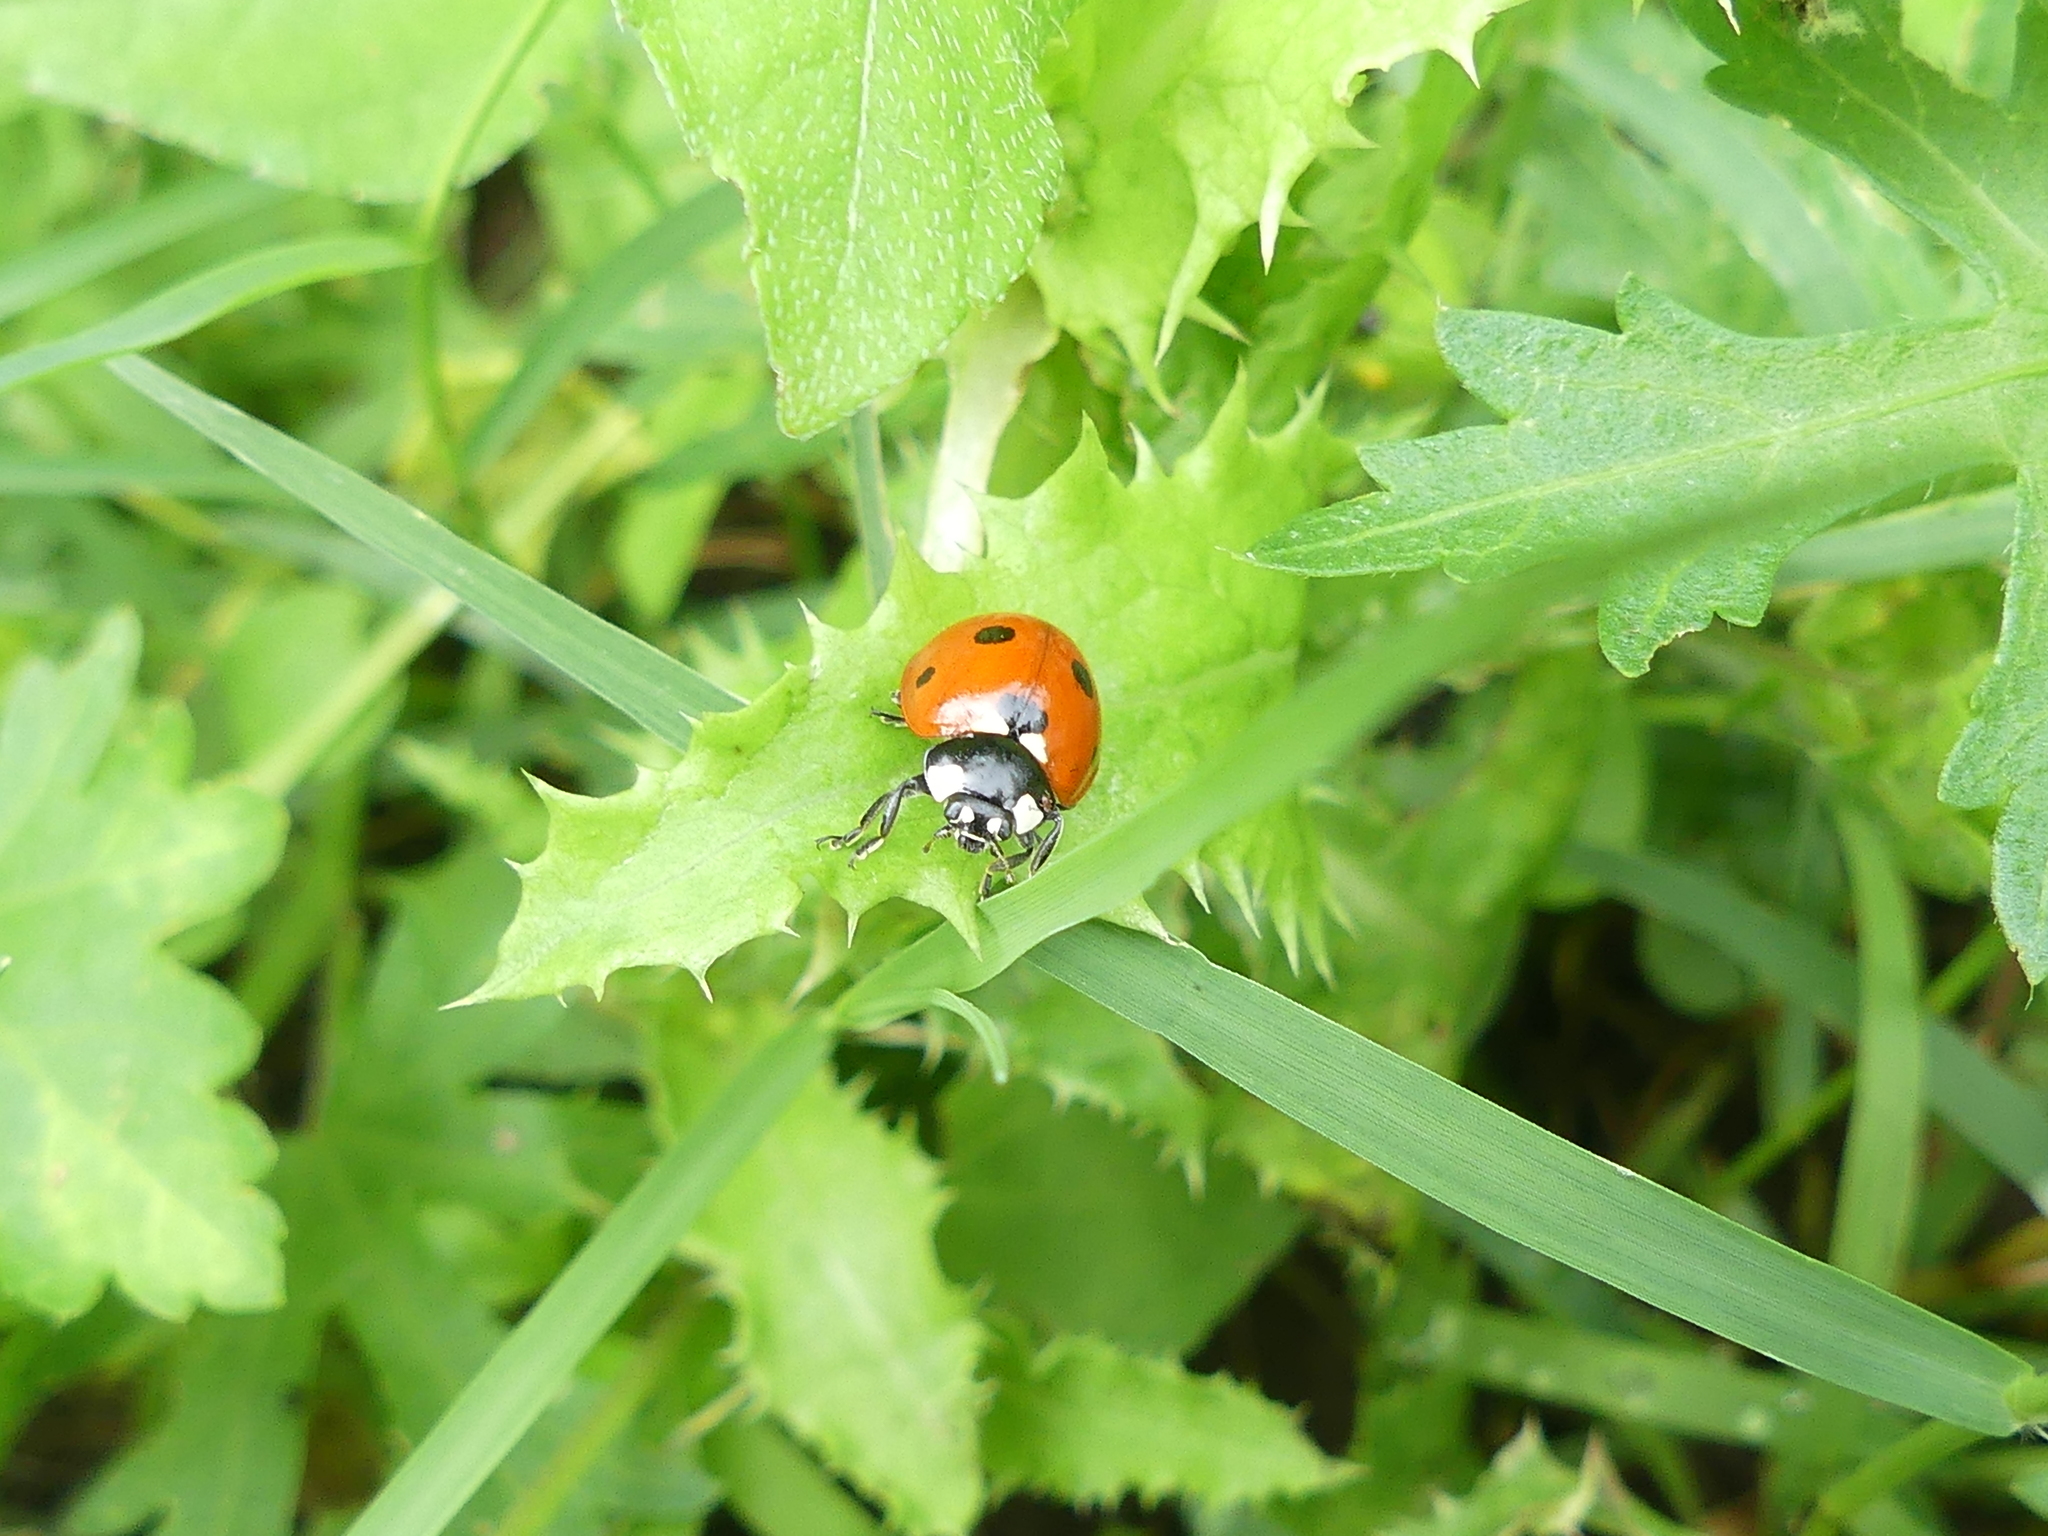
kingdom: Animalia
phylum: Arthropoda
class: Insecta
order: Coleoptera
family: Coccinellidae
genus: Coccinella
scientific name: Coccinella septempunctata
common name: Sevenspotted lady beetle
